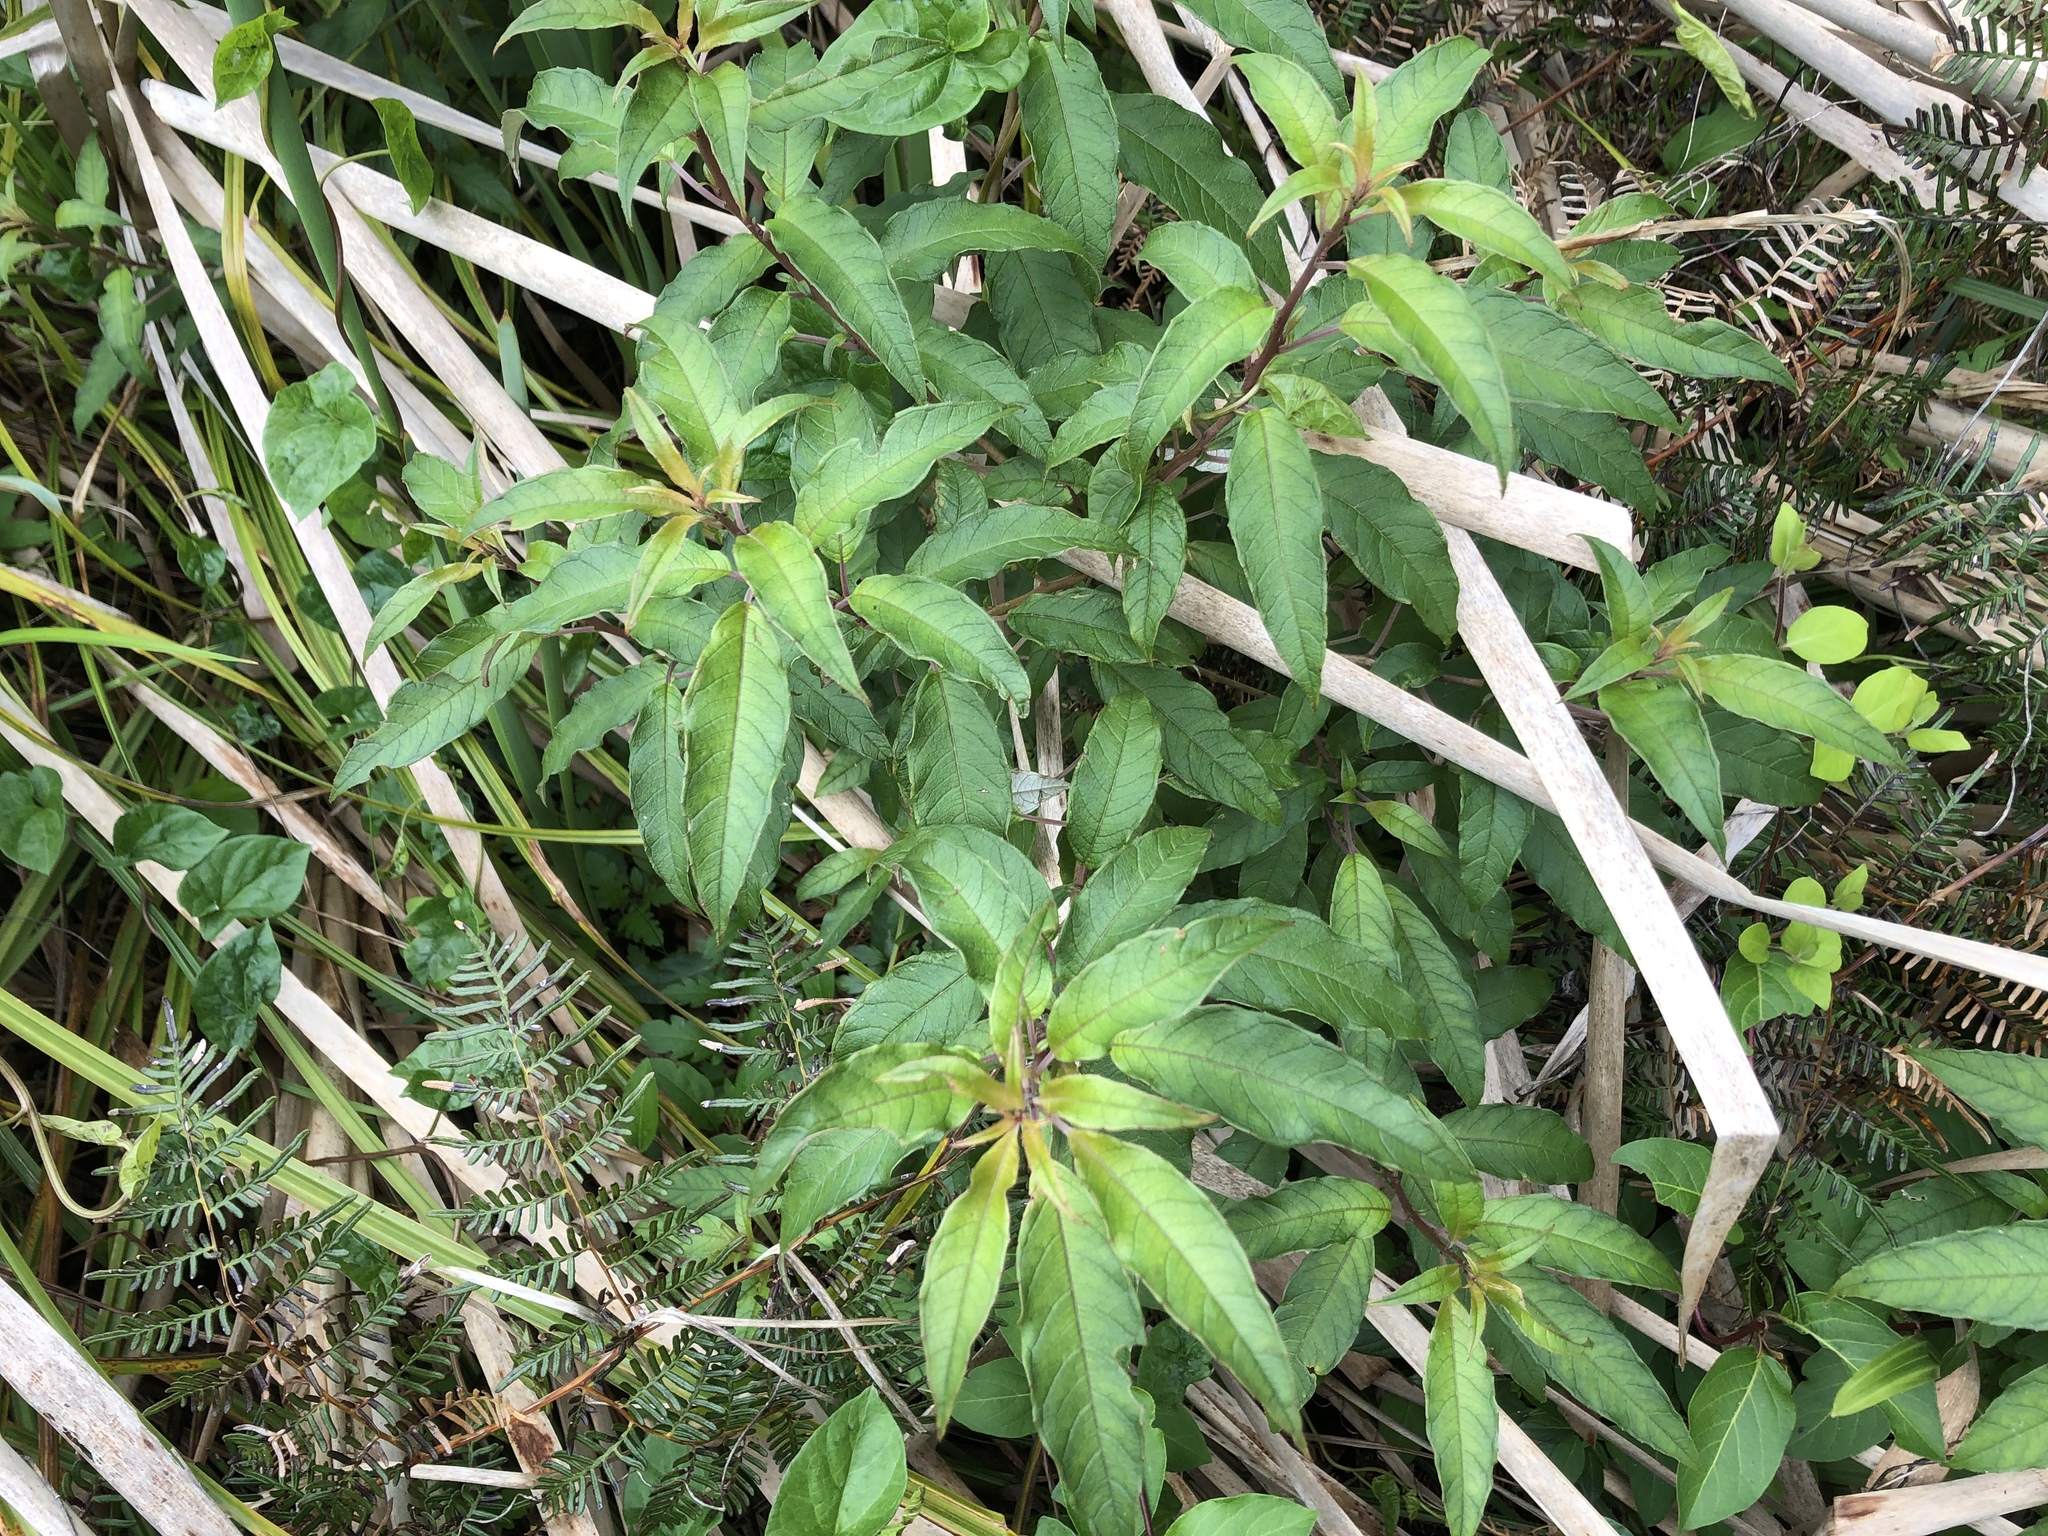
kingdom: Plantae
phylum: Tracheophyta
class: Magnoliopsida
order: Myrtales
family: Onagraceae
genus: Fuchsia
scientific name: Fuchsia excorticata
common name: Tree fuchsia
